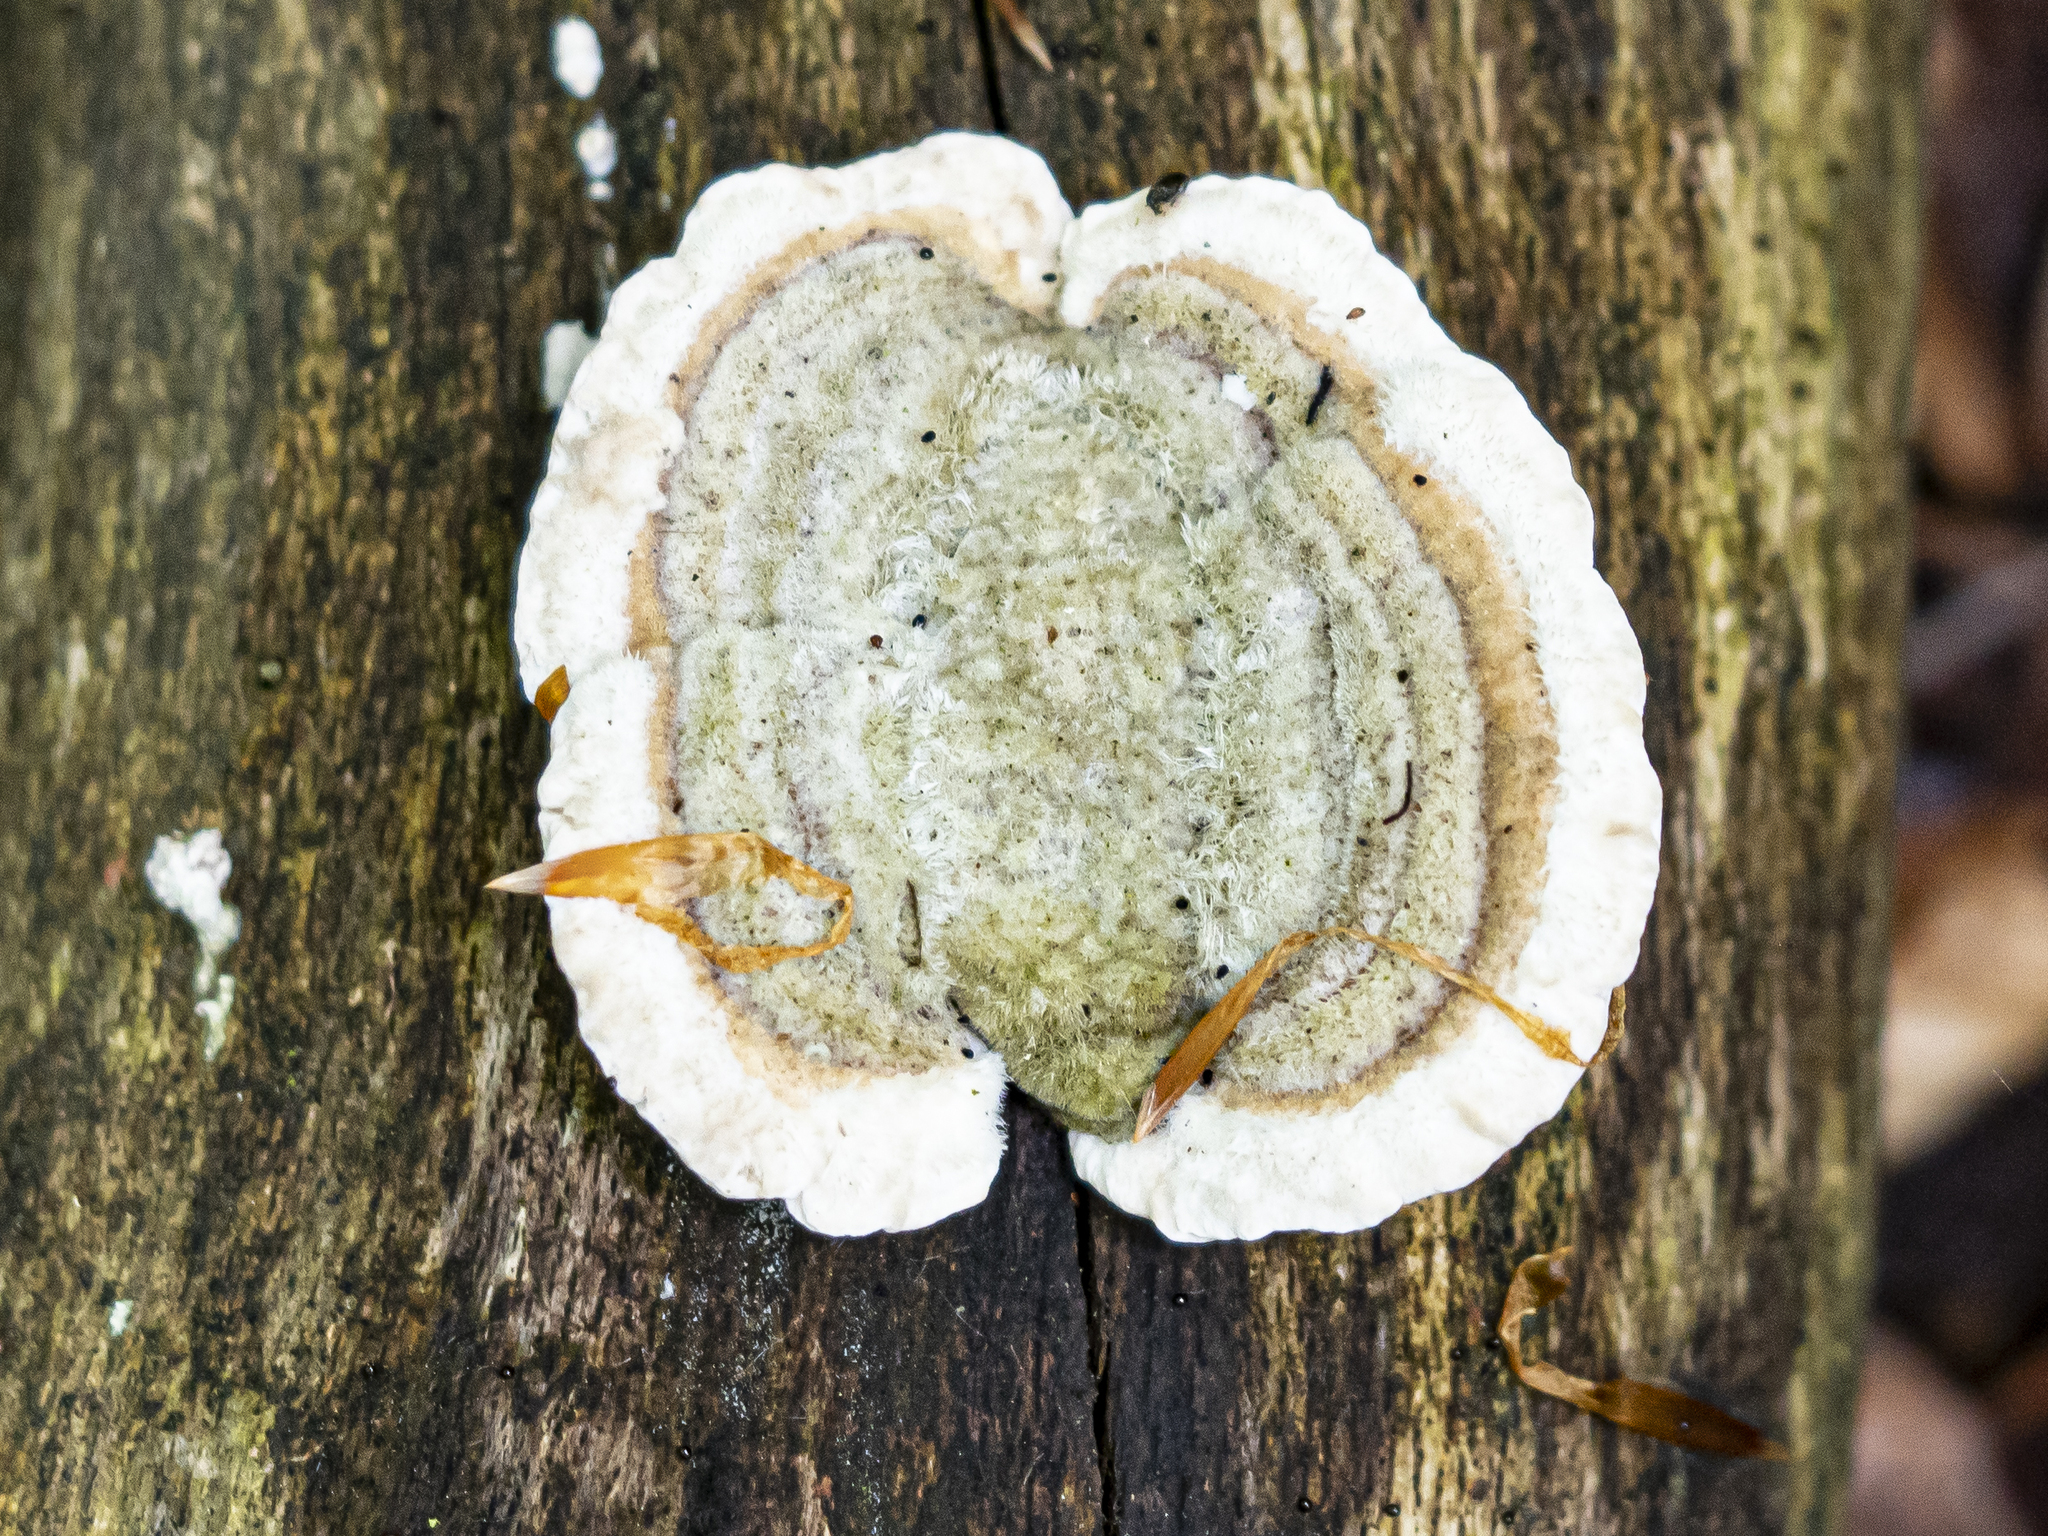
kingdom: Fungi
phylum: Basidiomycota
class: Agaricomycetes
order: Polyporales
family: Polyporaceae
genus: Trametes
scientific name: Trametes hirsuta
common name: Hairy bracket
